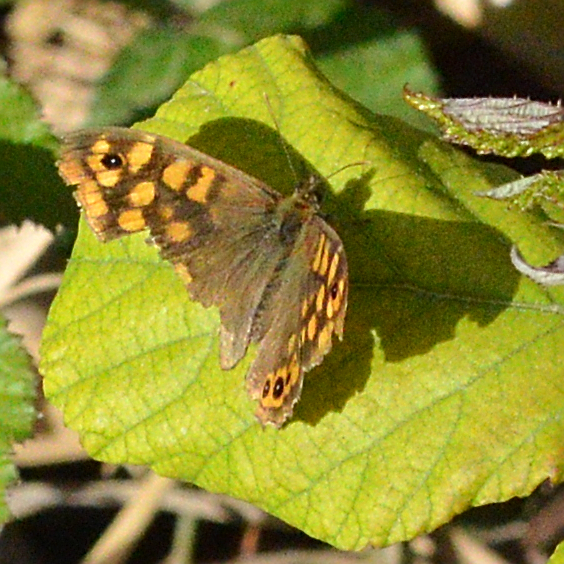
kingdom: Animalia
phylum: Arthropoda
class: Insecta
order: Lepidoptera
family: Nymphalidae
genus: Pararge
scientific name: Pararge aegeria
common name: Speckled wood
